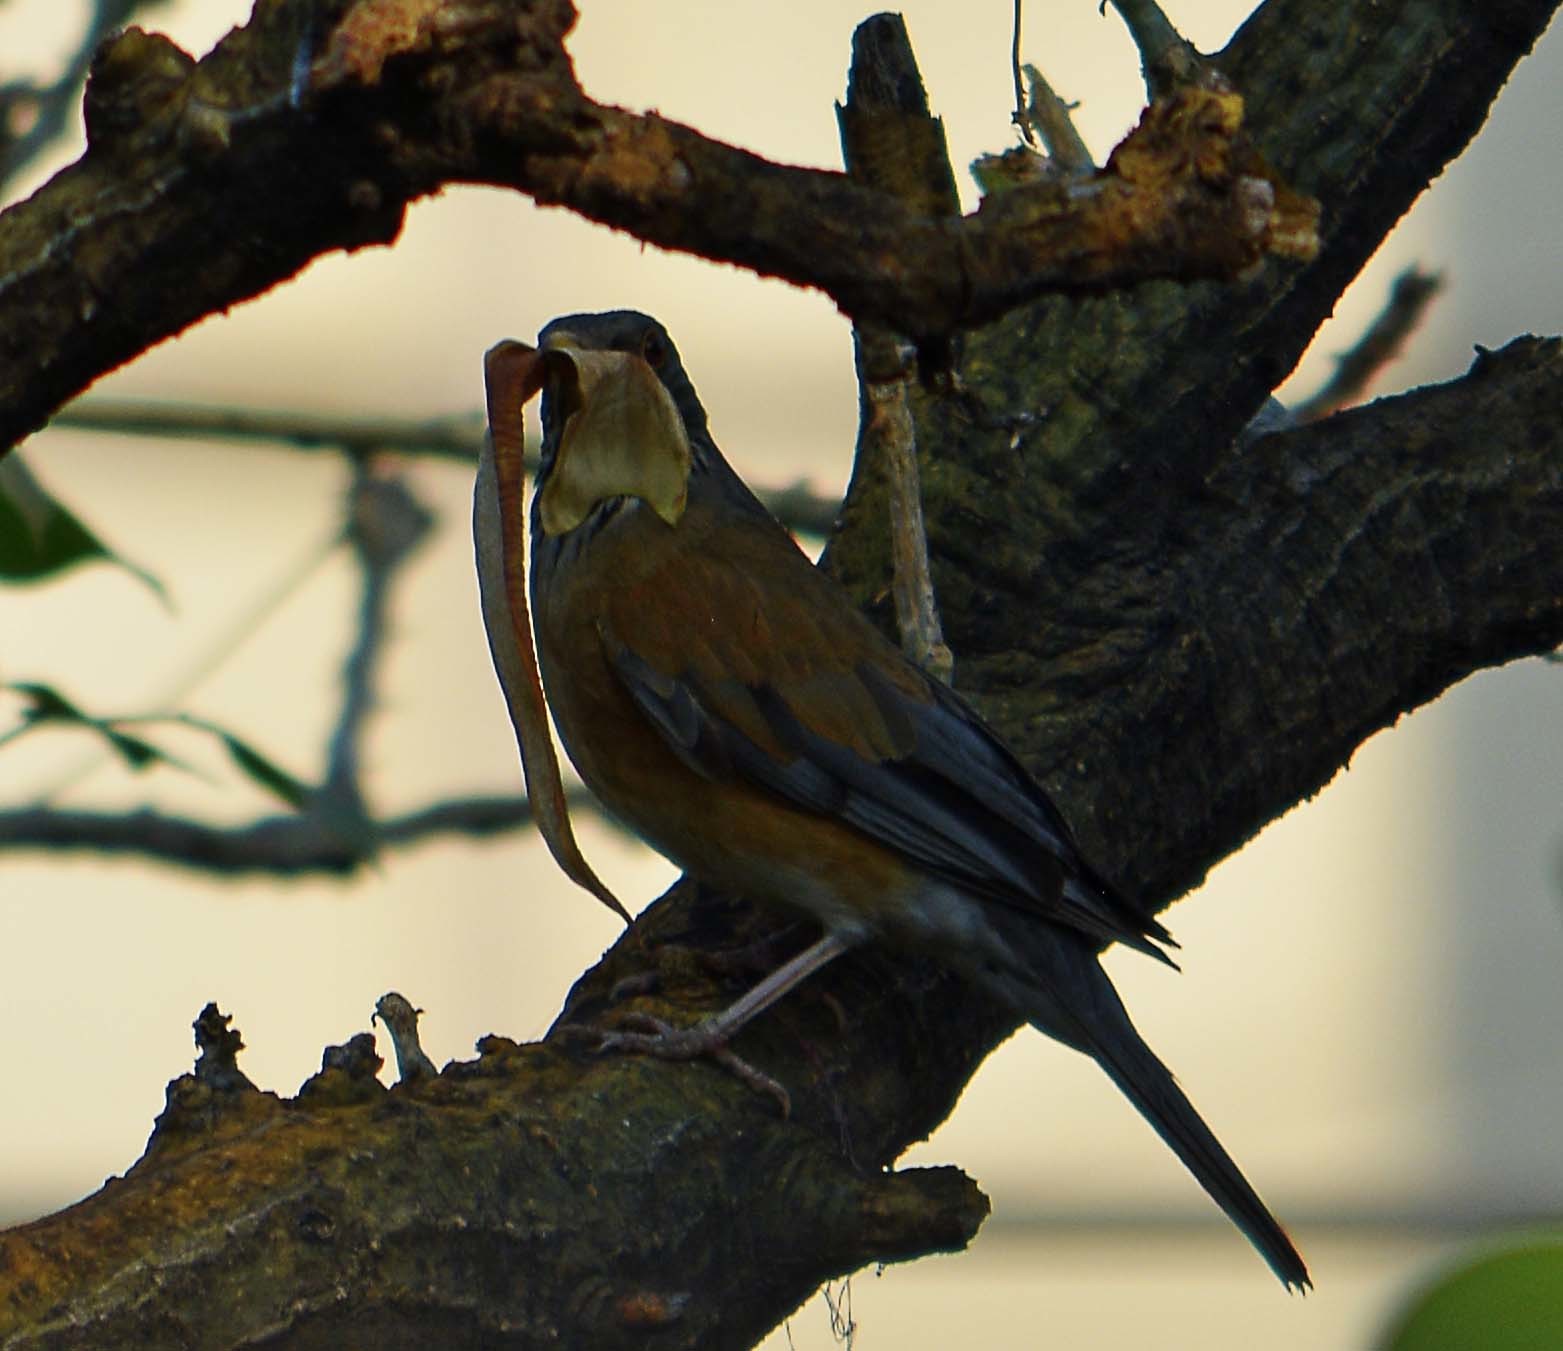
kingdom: Animalia
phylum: Chordata
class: Aves
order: Passeriformes
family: Turdidae
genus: Turdus
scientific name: Turdus rufopalliatus
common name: Rufous-backed robin
